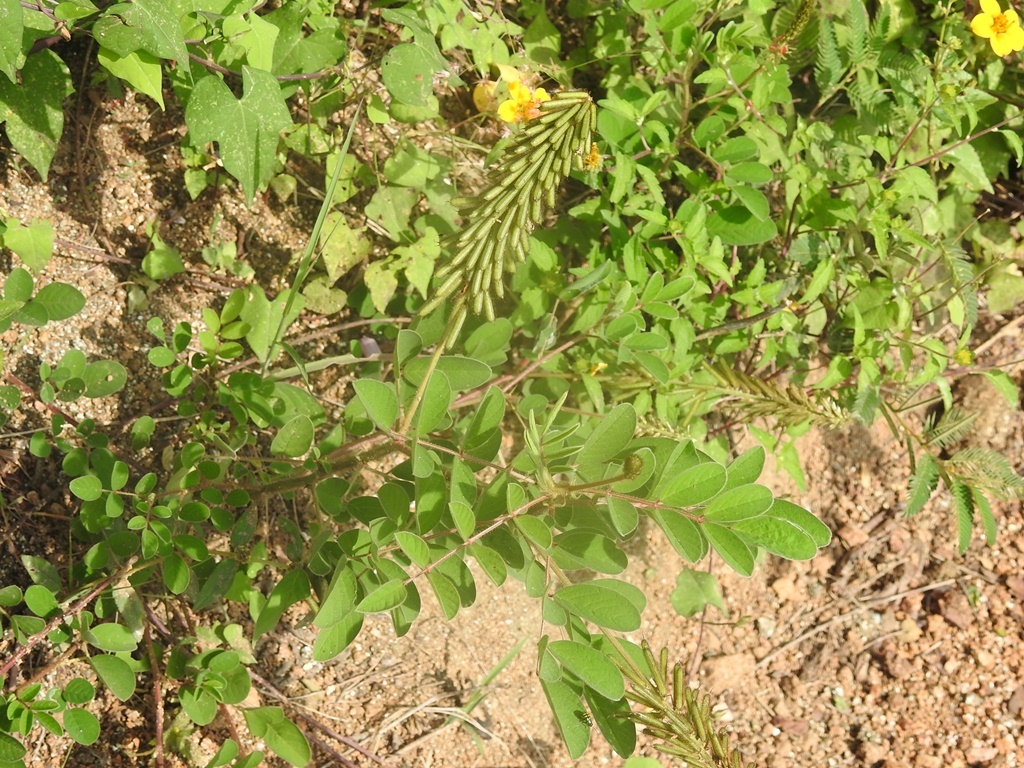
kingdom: Plantae
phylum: Tracheophyta
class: Magnoliopsida
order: Fabales
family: Fabaceae
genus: Indigofera
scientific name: Indigofera hirsuta
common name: Hairy indigo
